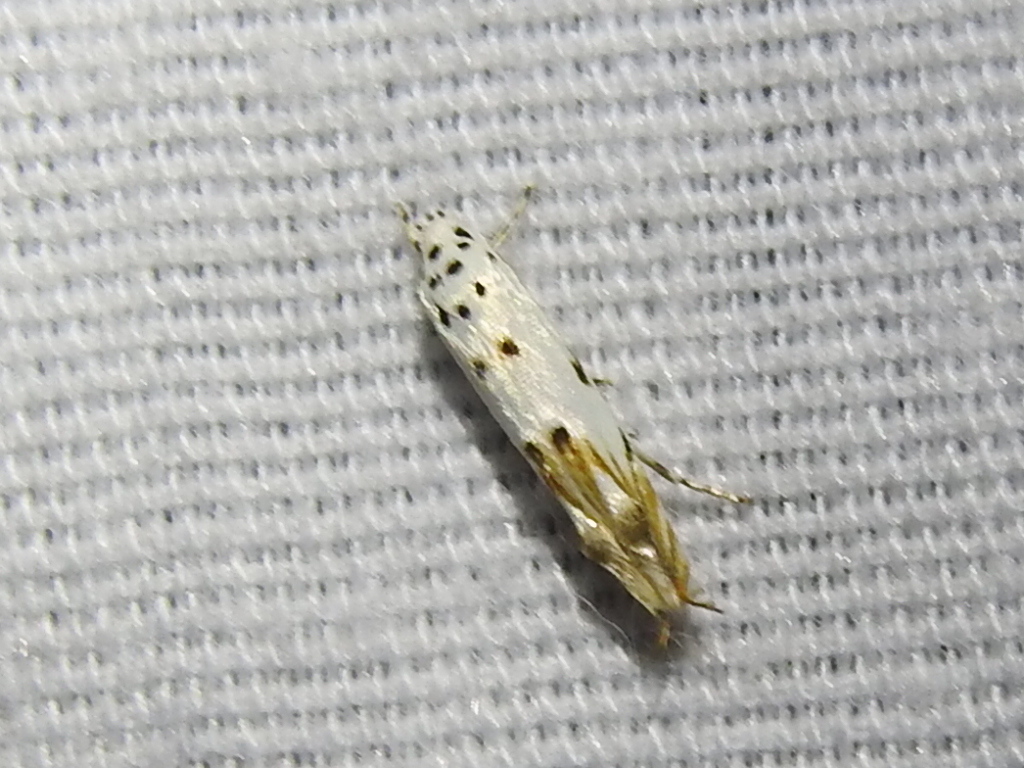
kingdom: Animalia
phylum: Arthropoda
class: Insecta
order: Lepidoptera
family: Momphidae
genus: Mompha
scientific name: Mompha eloisella
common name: Red-streaked mompha moth
